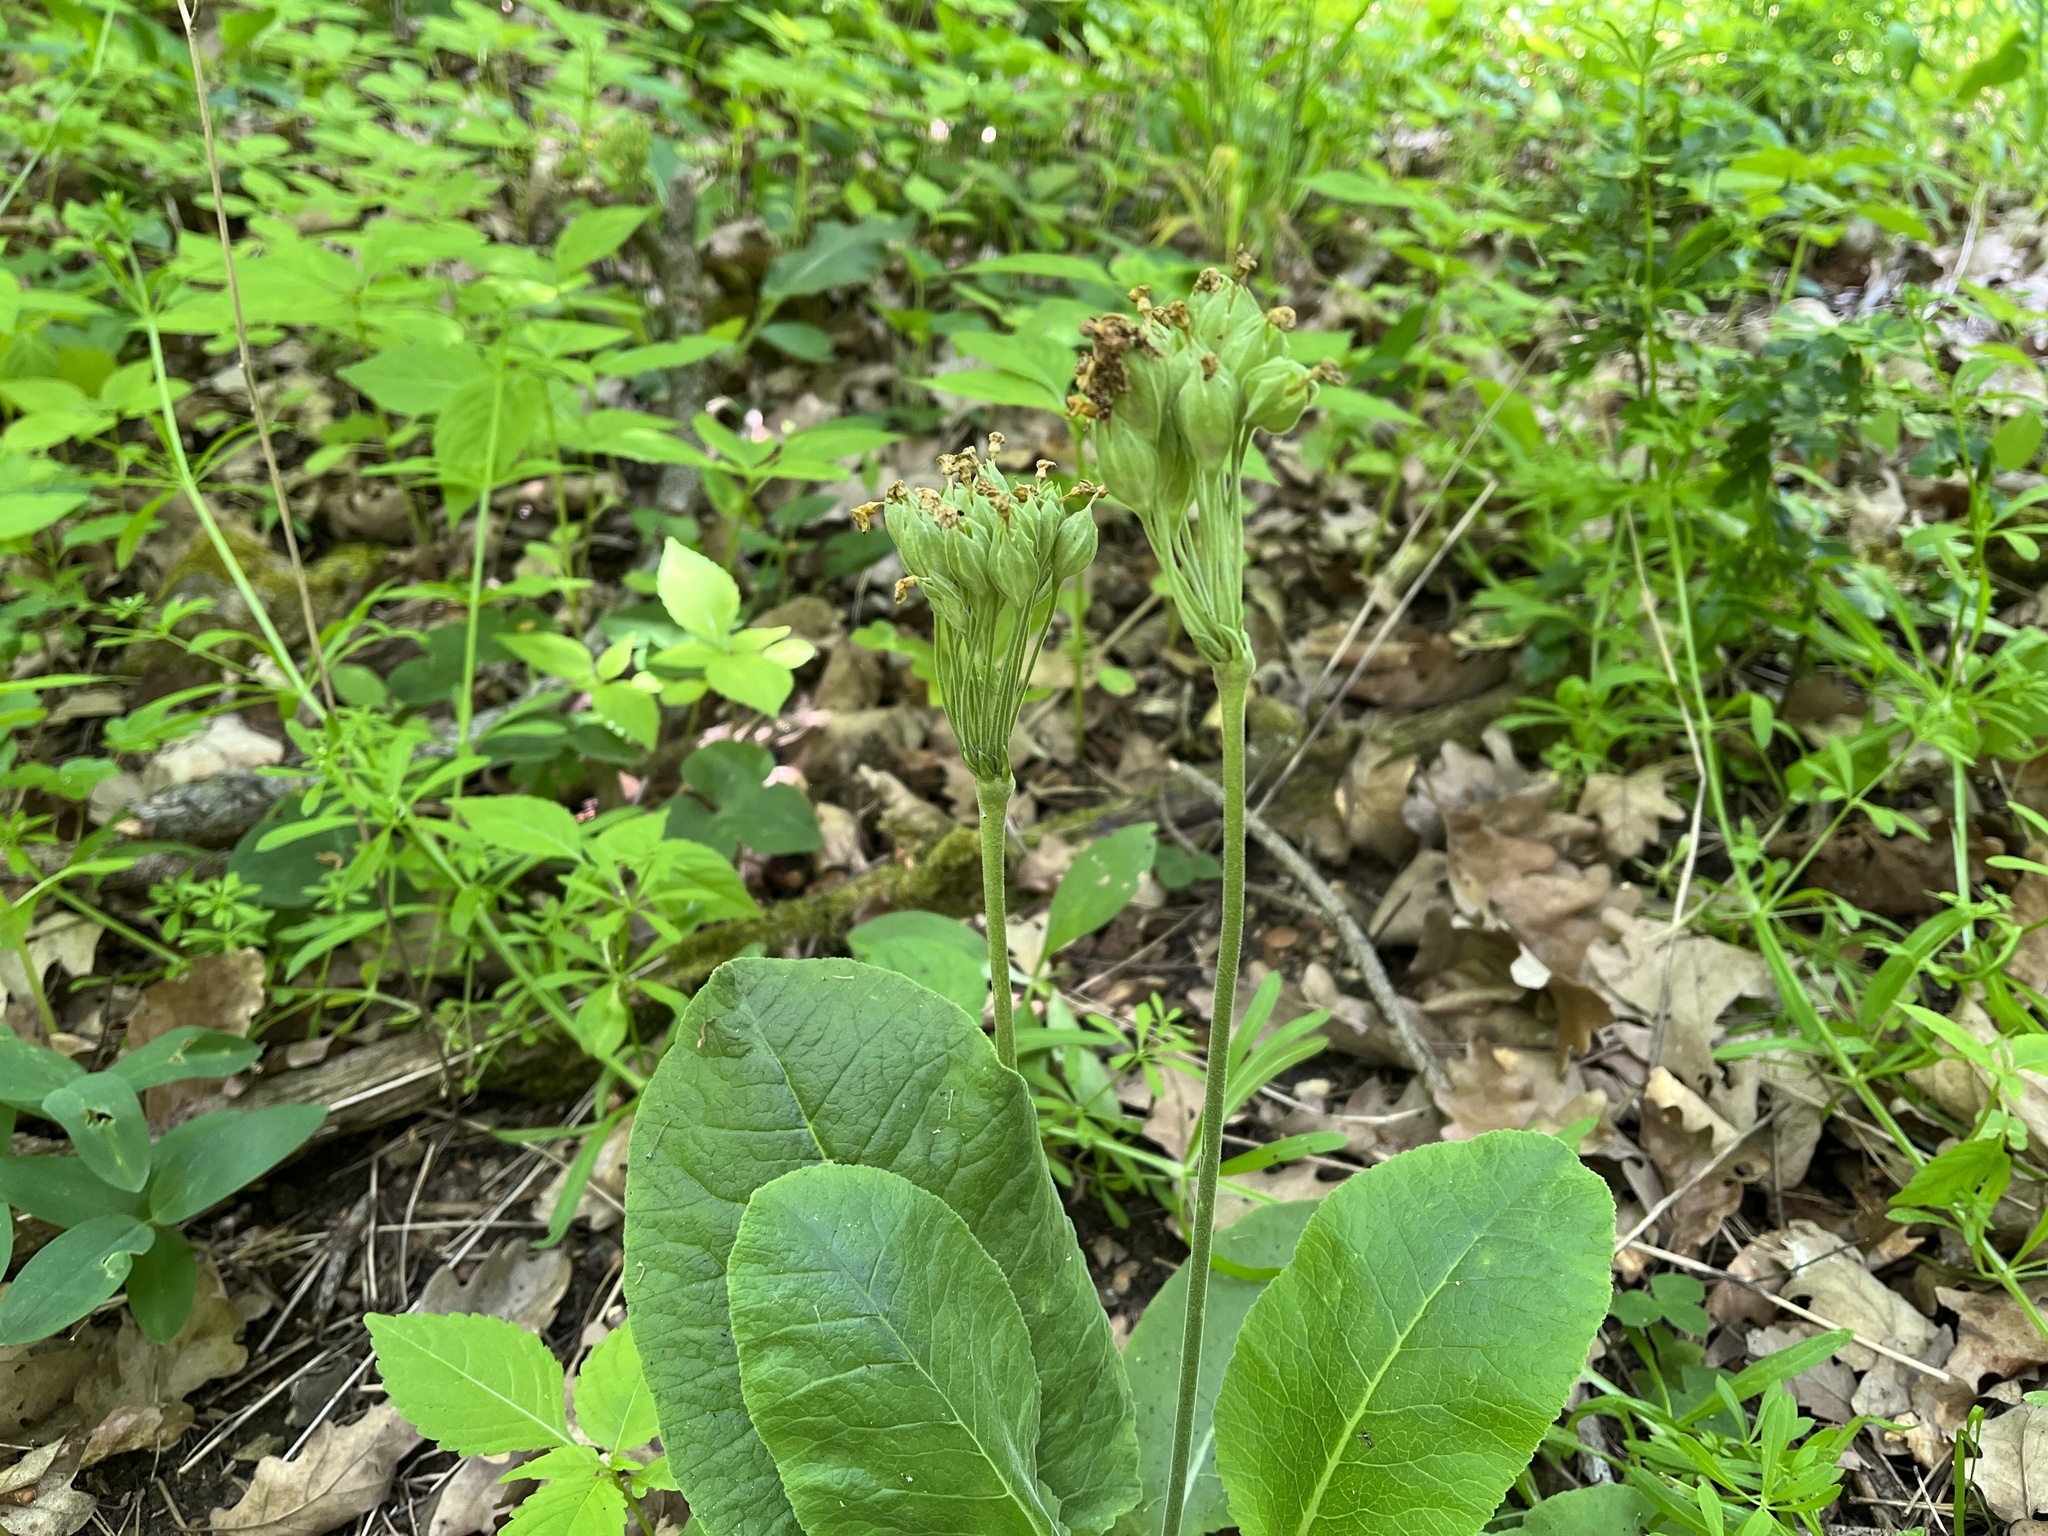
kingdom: Plantae
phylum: Tracheophyta
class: Magnoliopsida
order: Ericales
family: Primulaceae
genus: Primula
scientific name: Primula veris
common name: Cowslip
